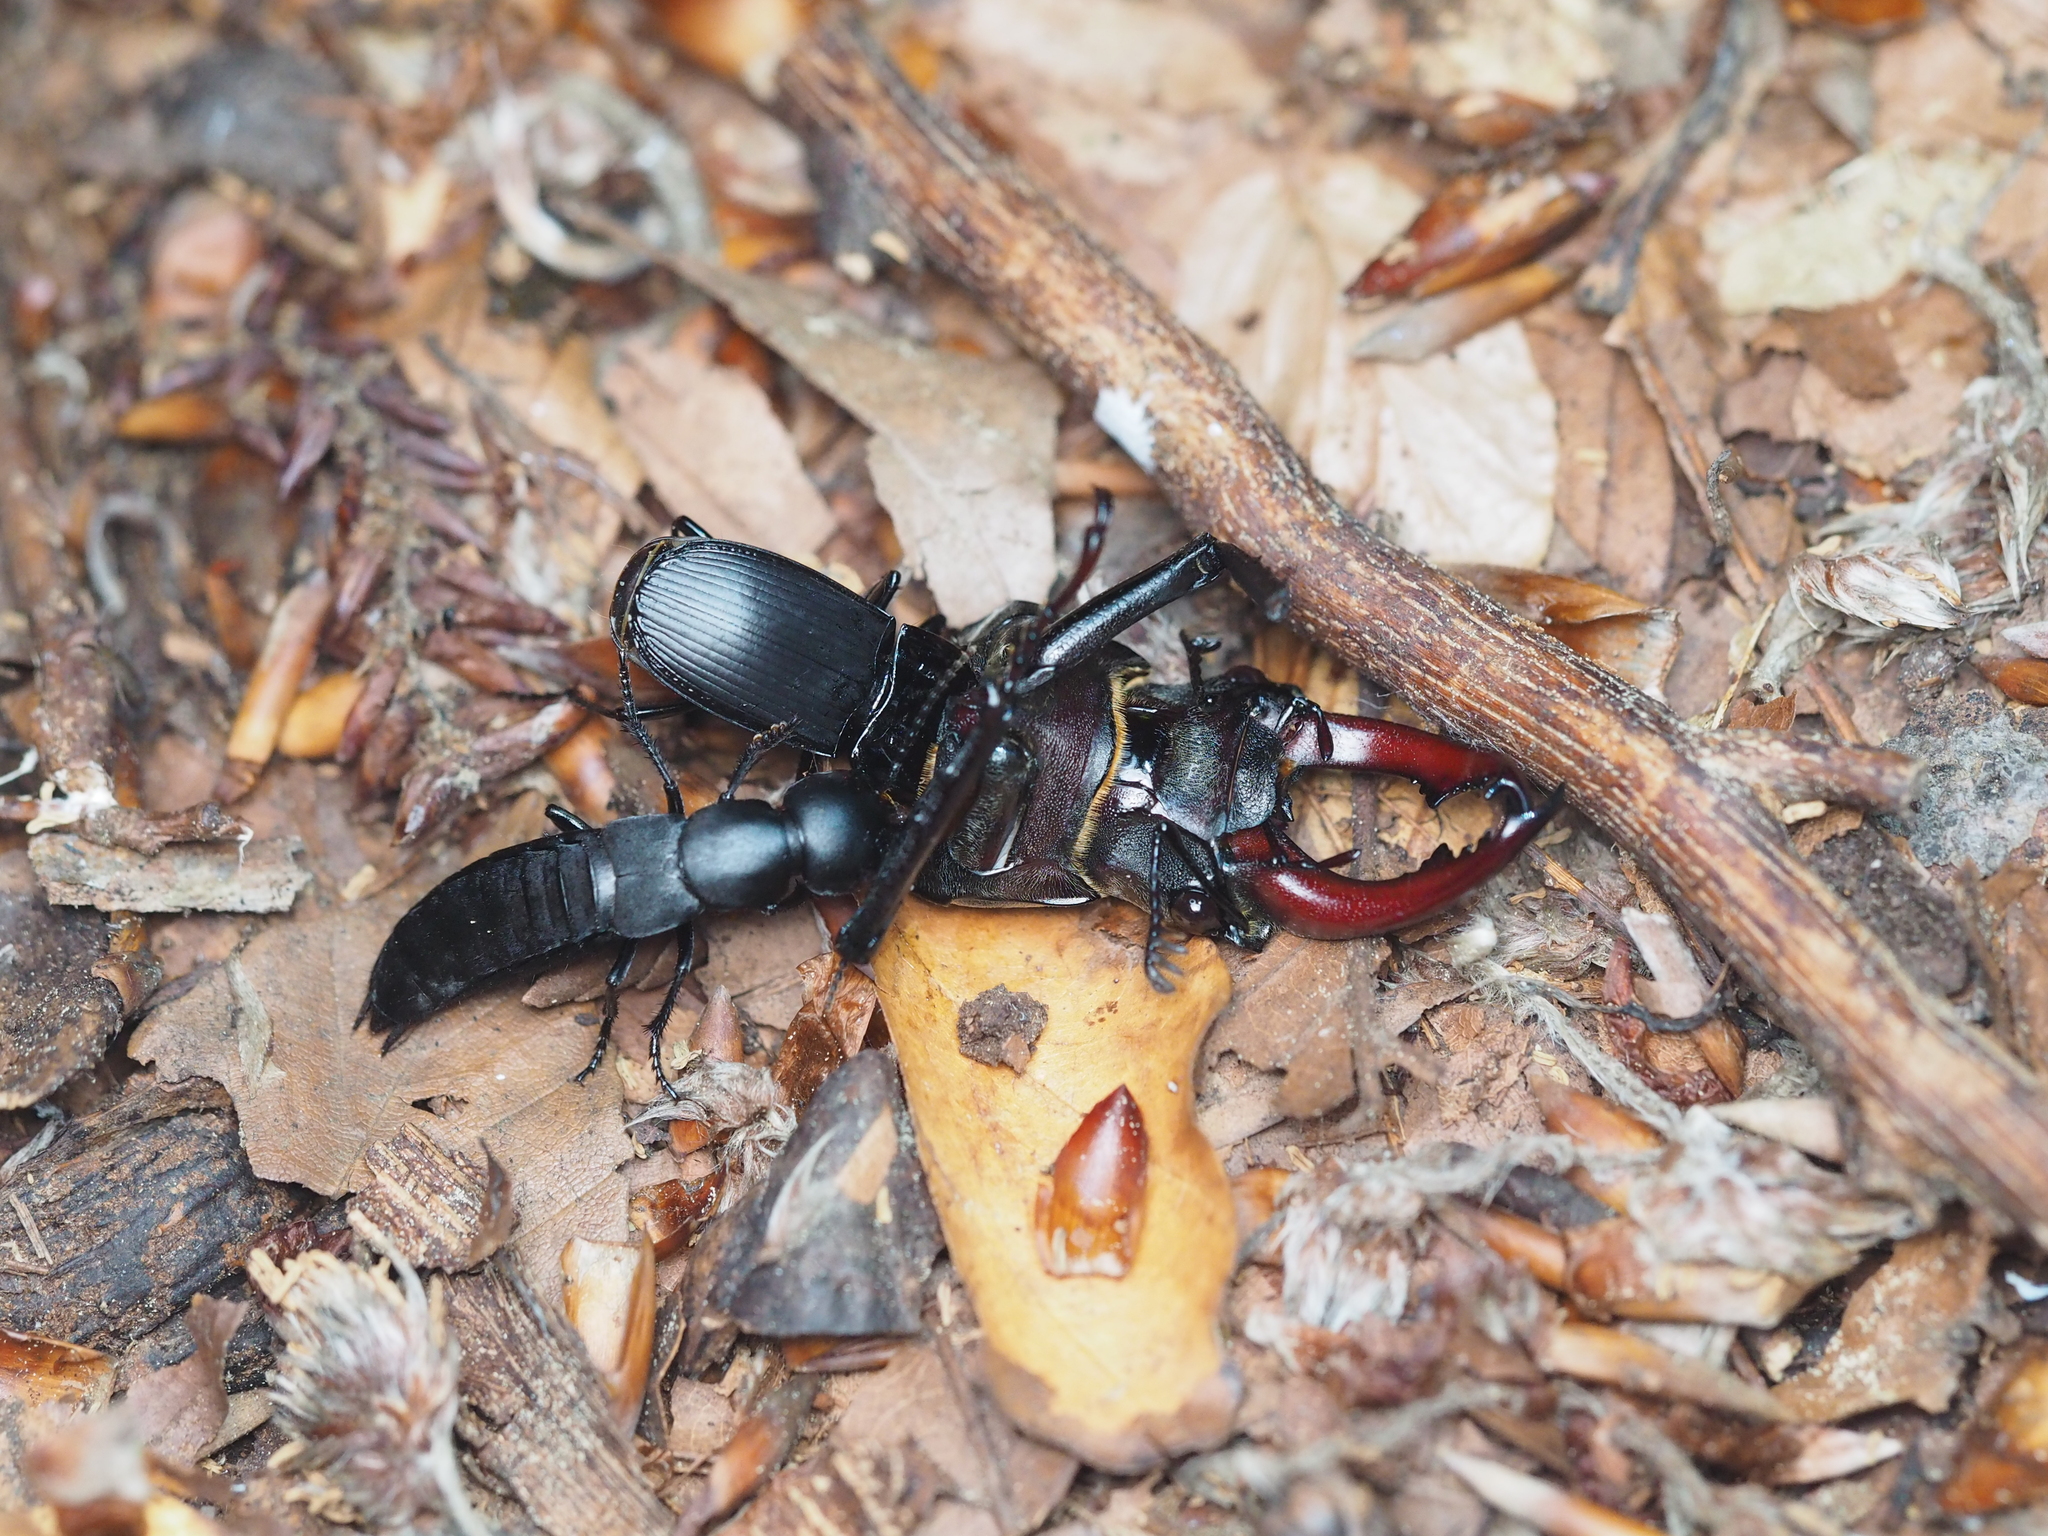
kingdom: Animalia
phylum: Arthropoda
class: Insecta
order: Coleoptera
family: Lucanidae
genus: Lucanus
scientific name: Lucanus cervus
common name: Stag beetle
